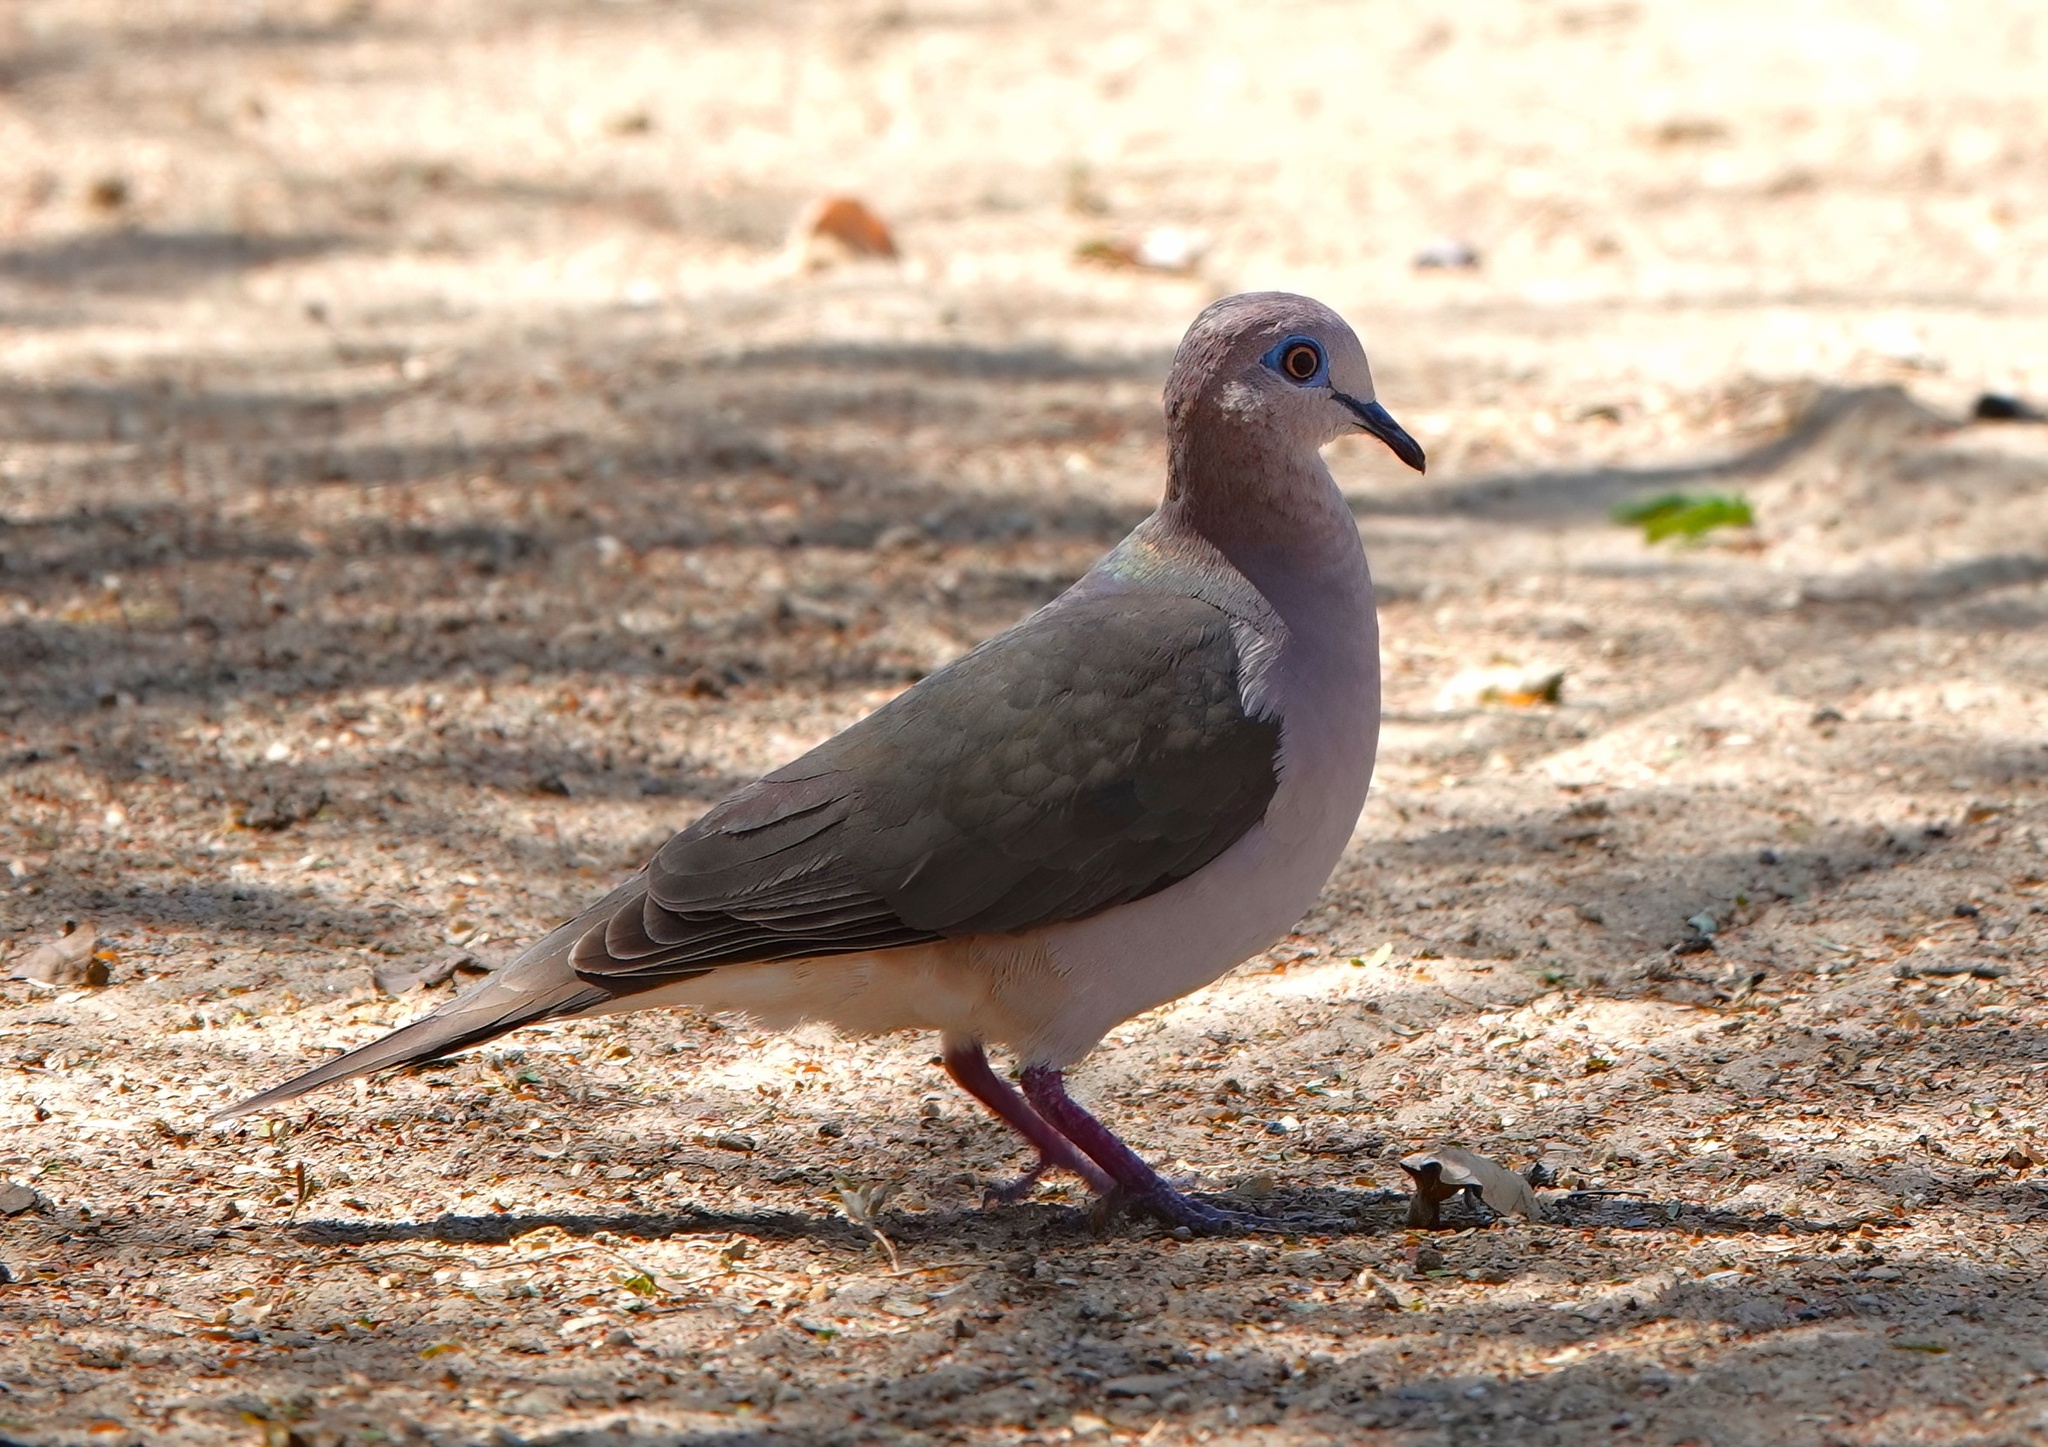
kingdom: Animalia
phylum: Chordata
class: Aves
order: Columbiformes
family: Columbidae
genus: Leptotila
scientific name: Leptotila verreauxi
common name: White-tipped dove
